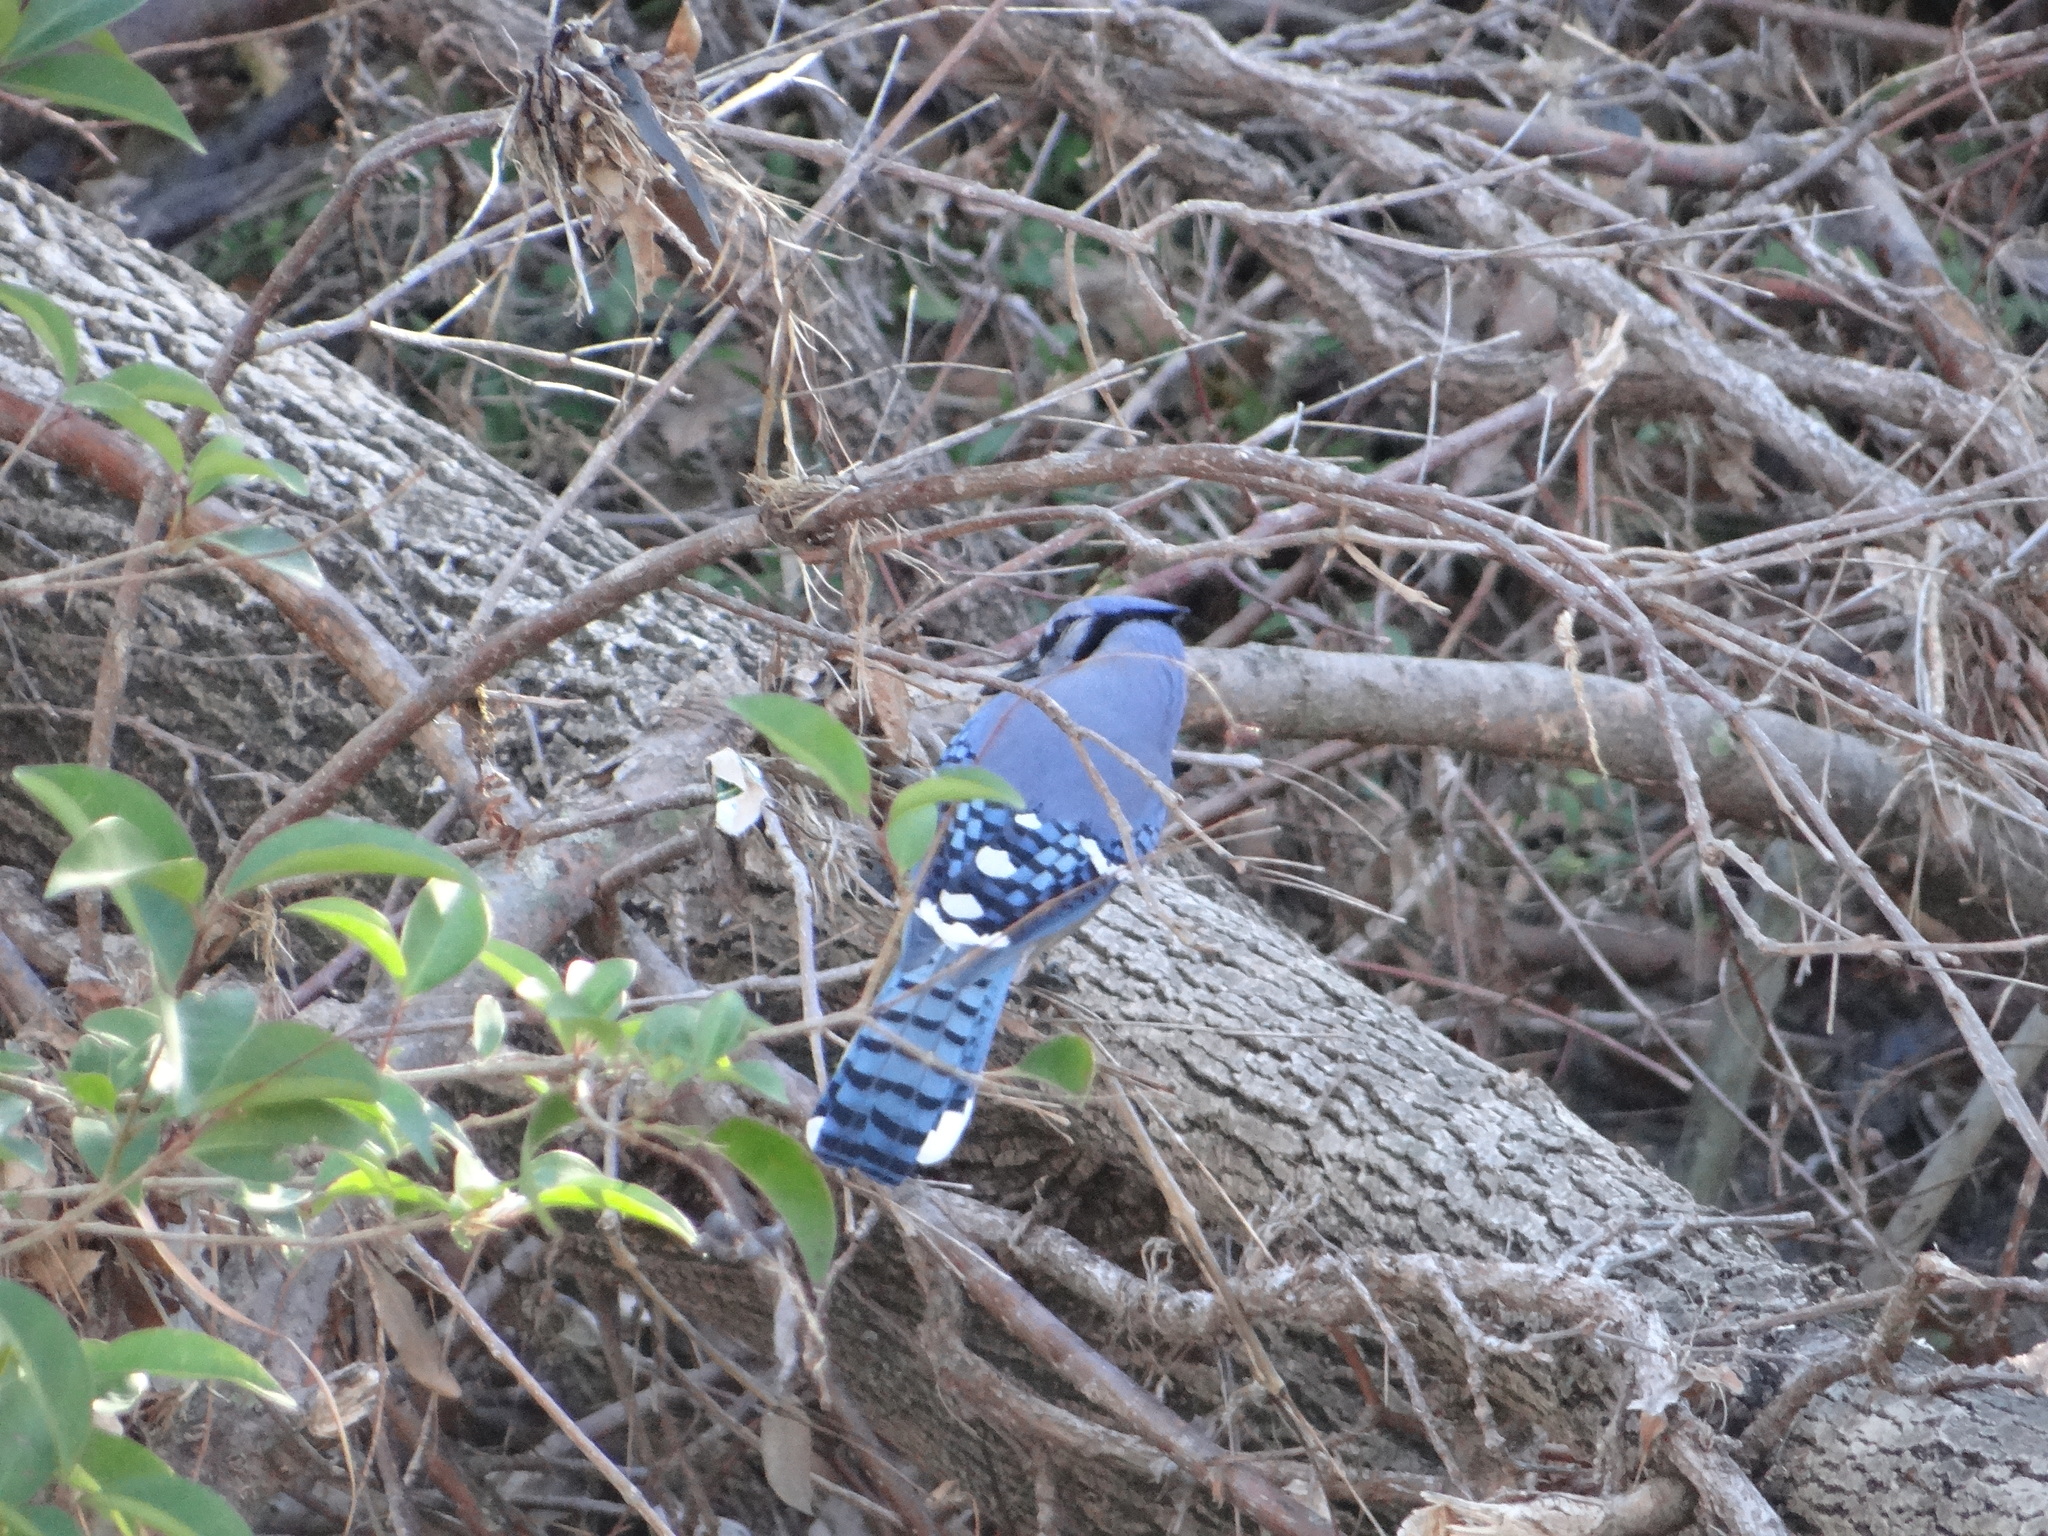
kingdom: Animalia
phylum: Chordata
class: Aves
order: Passeriformes
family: Corvidae
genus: Cyanocitta
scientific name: Cyanocitta cristata
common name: Blue jay
